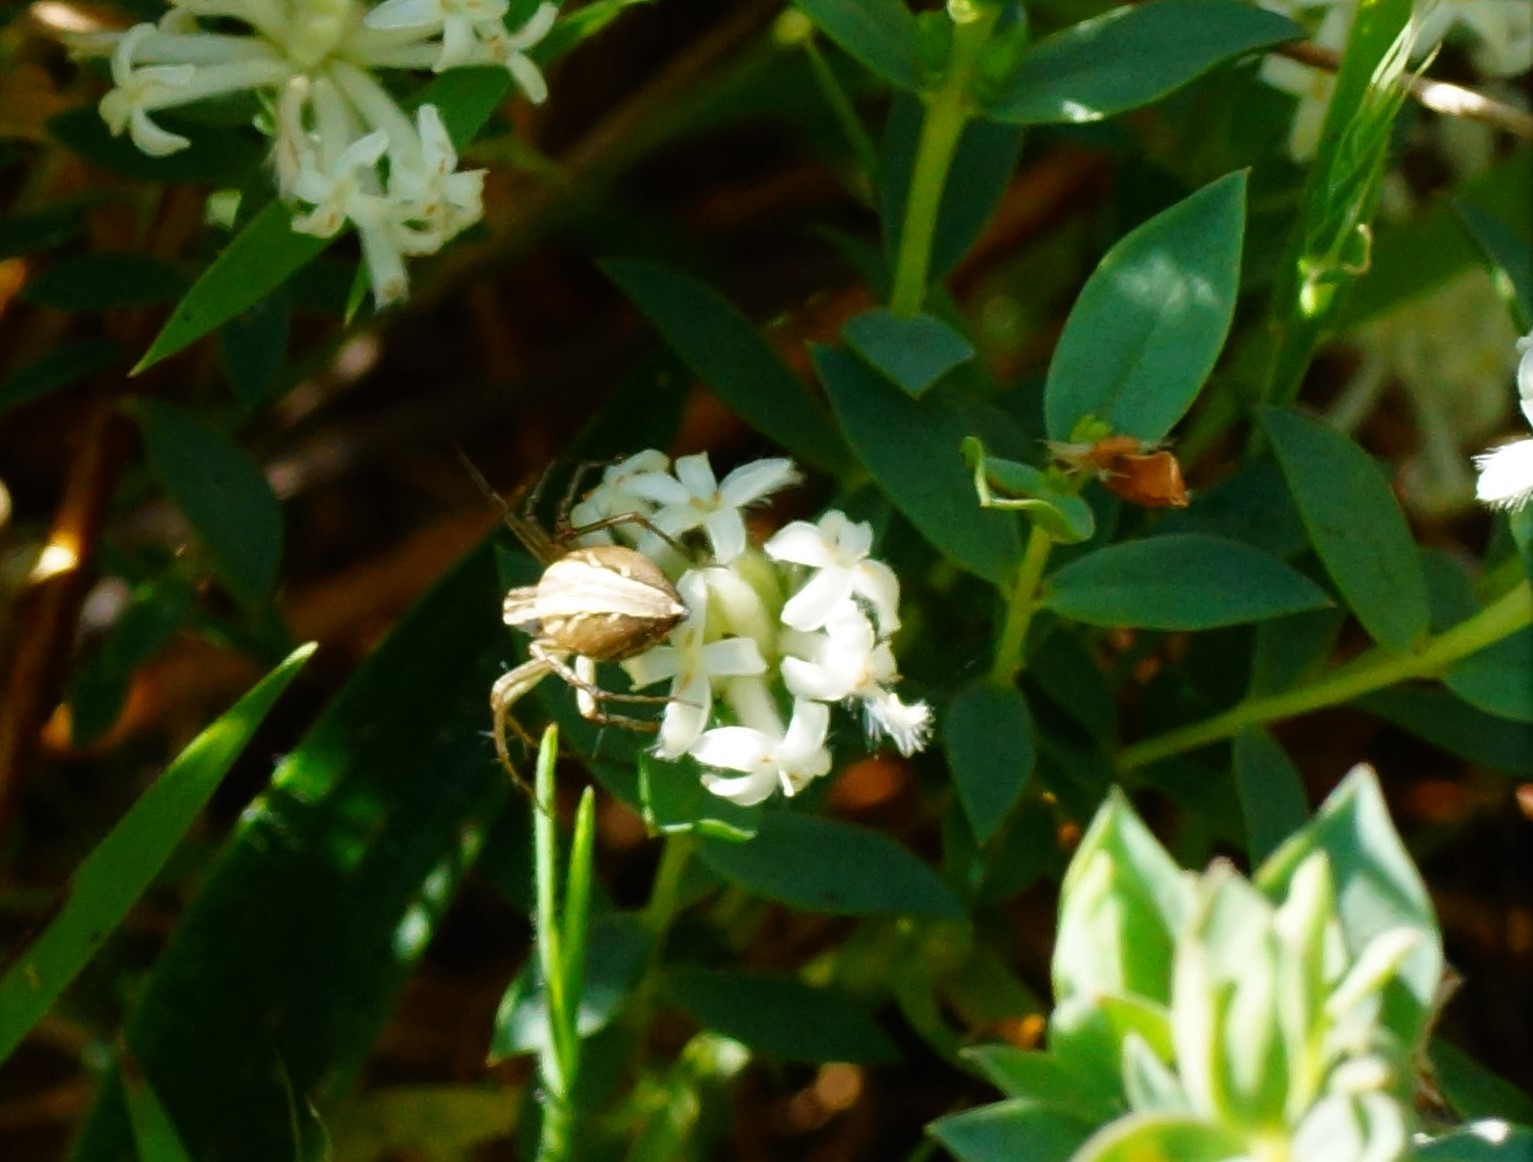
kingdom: Plantae
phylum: Tracheophyta
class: Magnoliopsida
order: Malvales
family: Thymelaeaceae
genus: Pimelea
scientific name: Pimelea glauca
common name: Smooth riceflower
